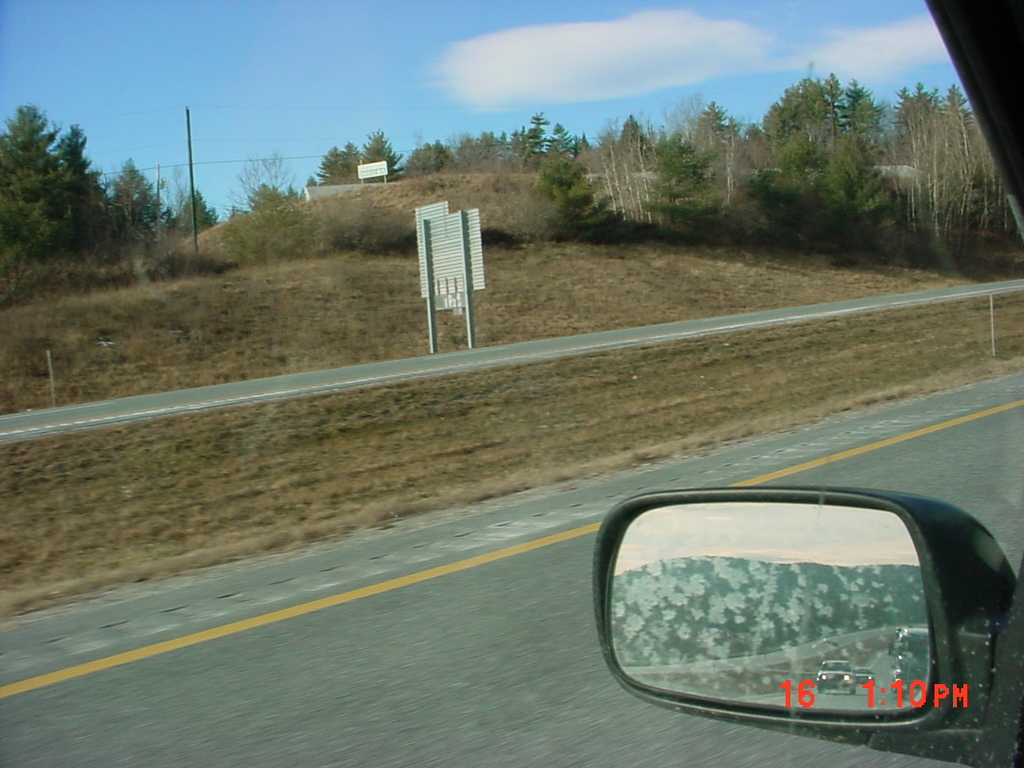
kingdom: Plantae
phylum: Tracheophyta
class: Pinopsida
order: Pinales
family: Pinaceae
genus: Pinus
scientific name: Pinus strobus
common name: Weymouth pine
